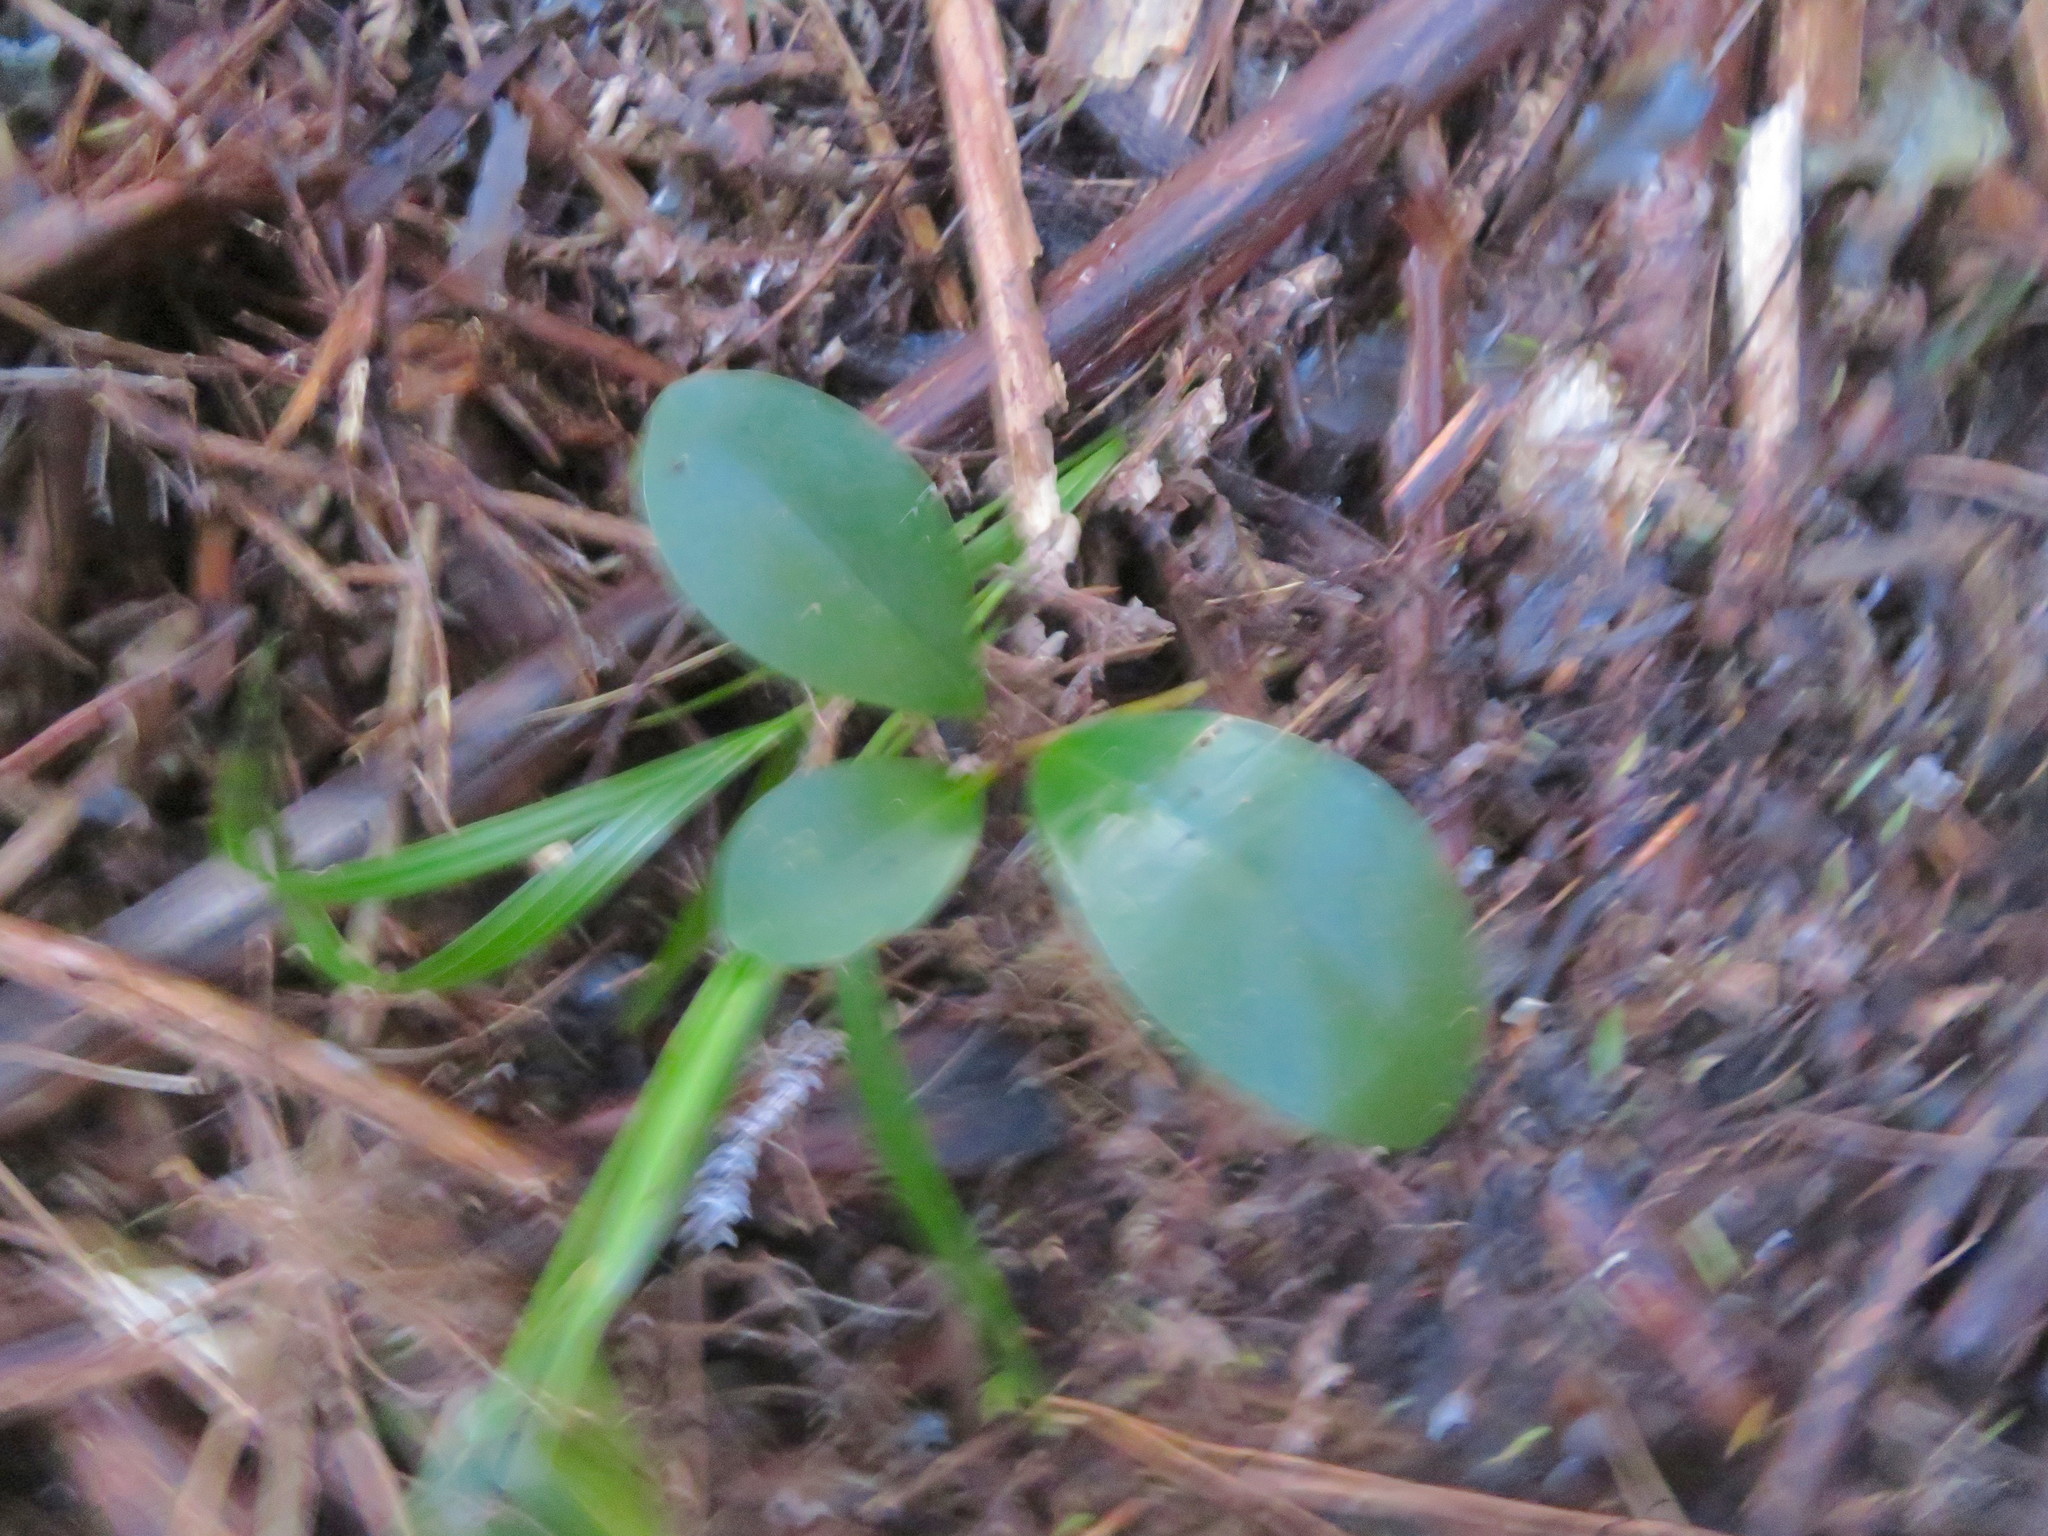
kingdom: Plantae
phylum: Tracheophyta
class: Magnoliopsida
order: Cucurbitales
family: Corynocarpaceae
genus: Corynocarpus
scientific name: Corynocarpus laevigatus
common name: New zealand laurel
